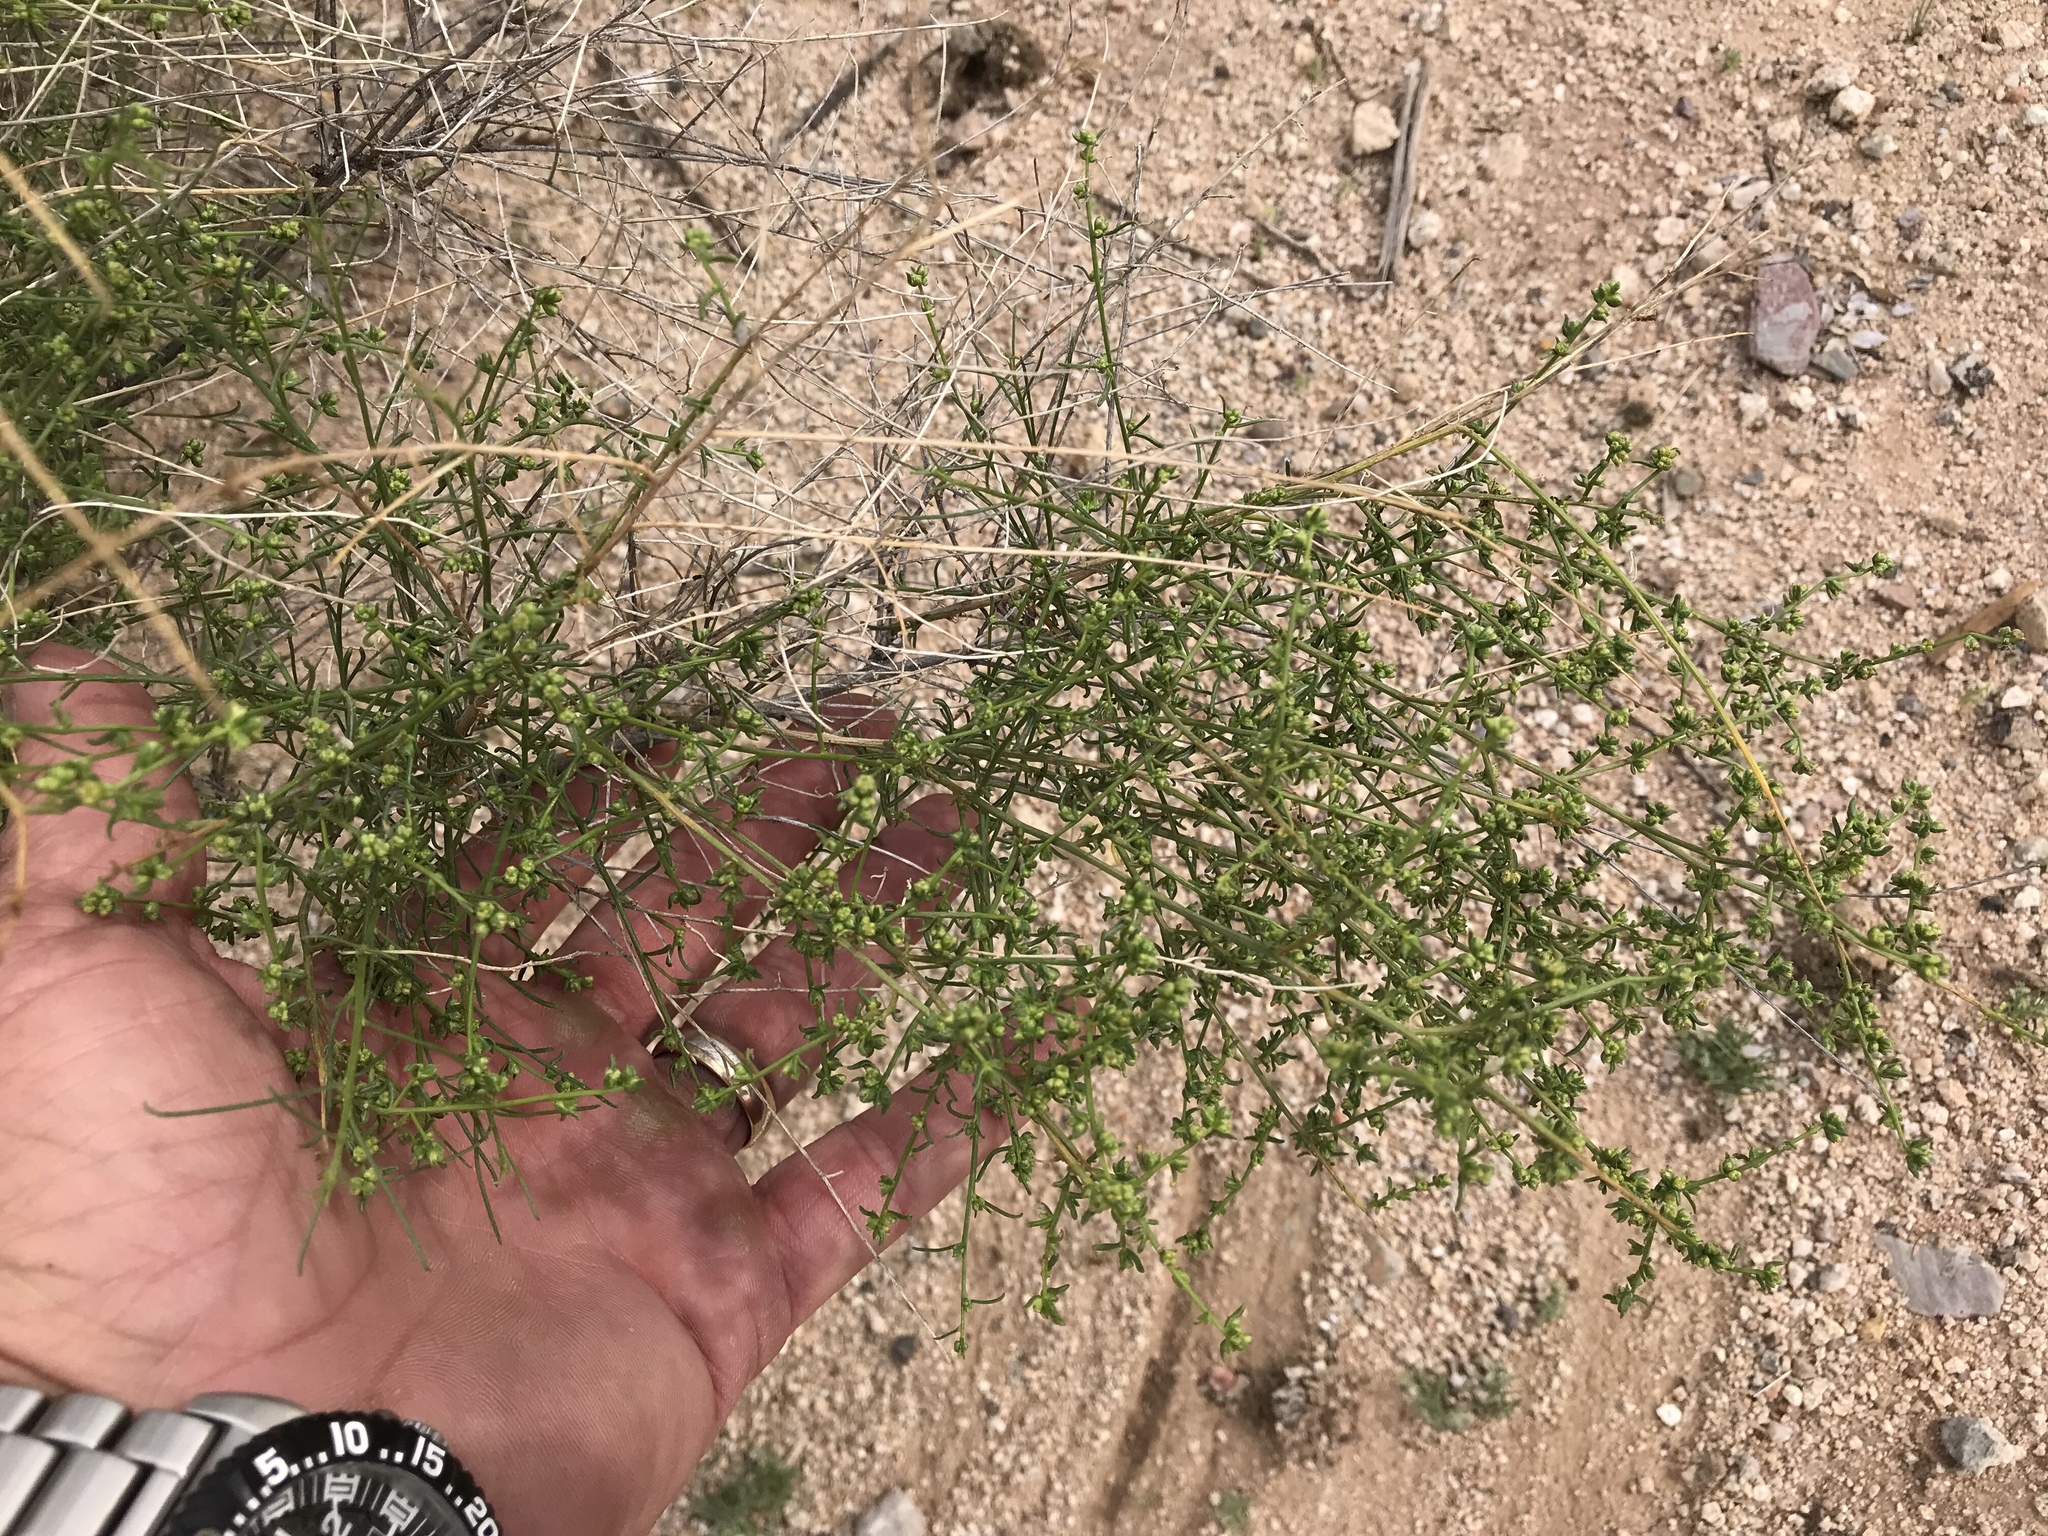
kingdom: Plantae
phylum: Tracheophyta
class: Magnoliopsida
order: Asterales
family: Asteraceae
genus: Ambrosia
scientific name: Ambrosia salsola
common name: Burrobrush
